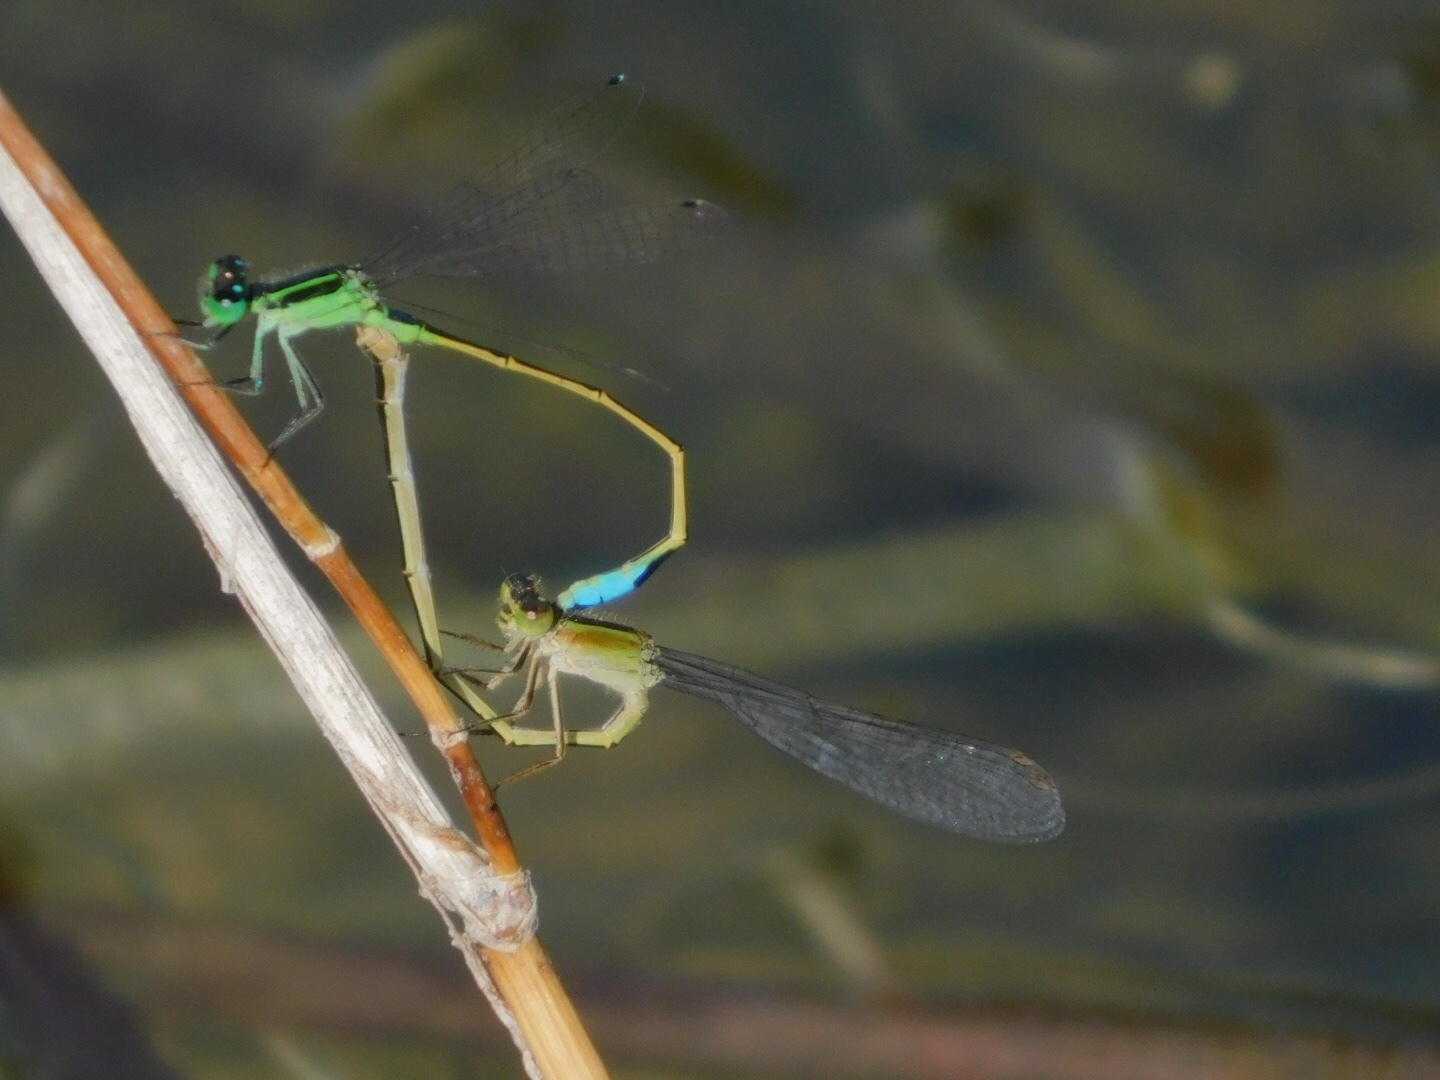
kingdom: Animalia
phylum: Arthropoda
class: Insecta
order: Odonata
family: Coenagrionidae
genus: Ischnura
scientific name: Ischnura ramburii
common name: Rambur's forktail
